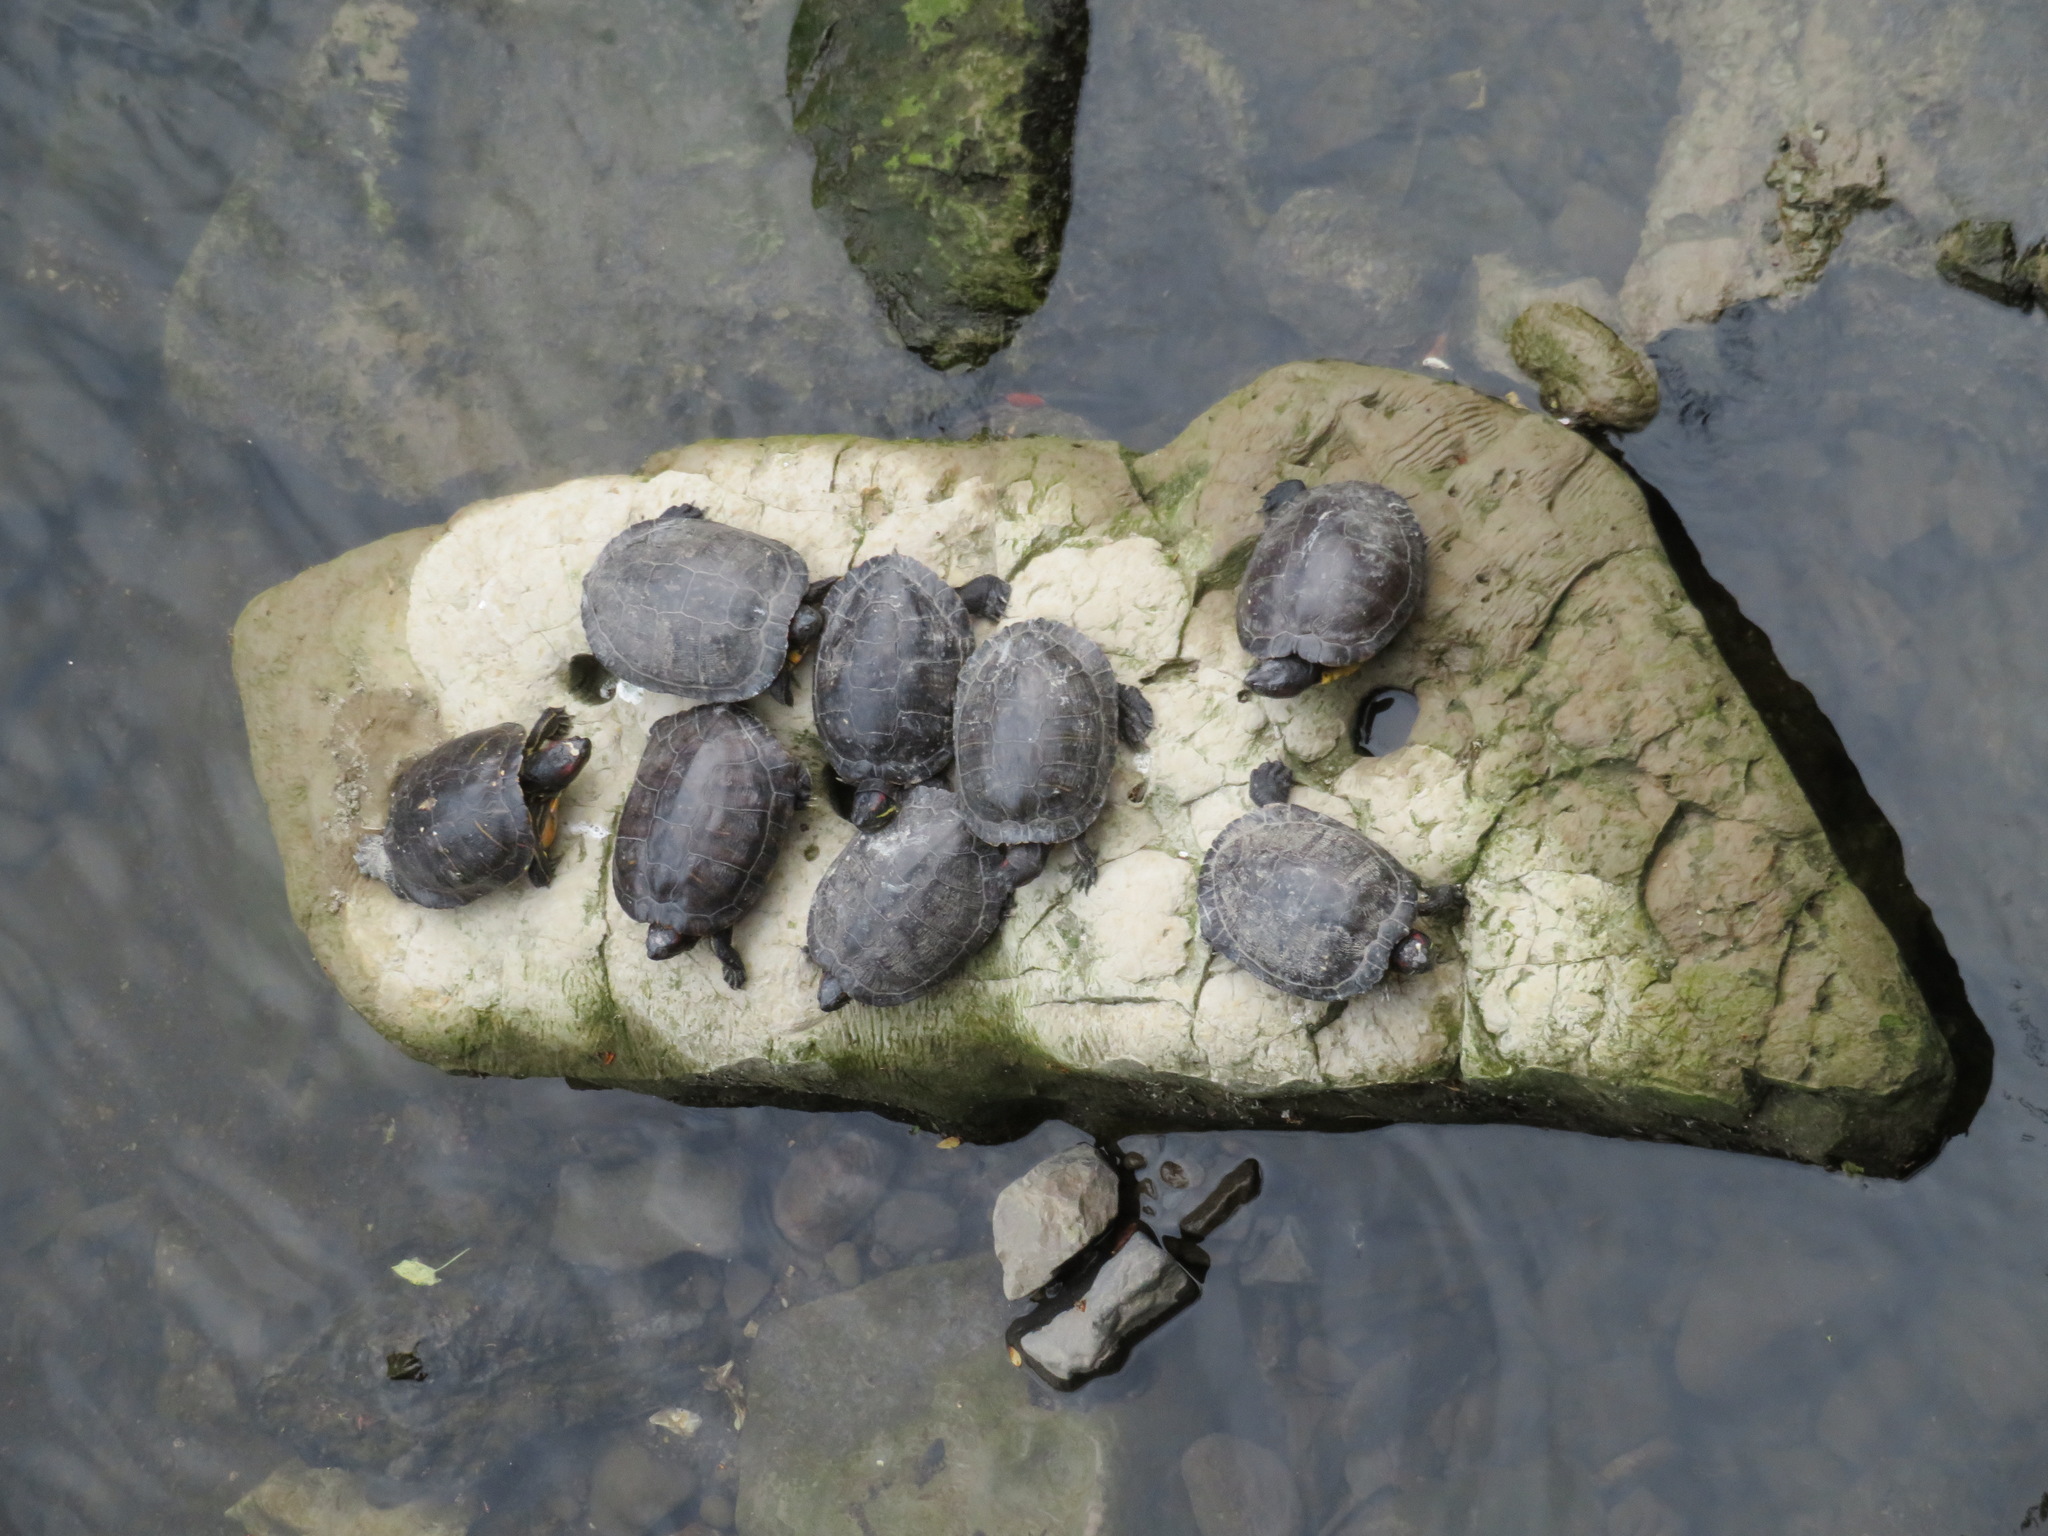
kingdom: Animalia
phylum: Chordata
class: Testudines
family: Emydidae
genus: Trachemys
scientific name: Trachemys scripta
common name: Slider
